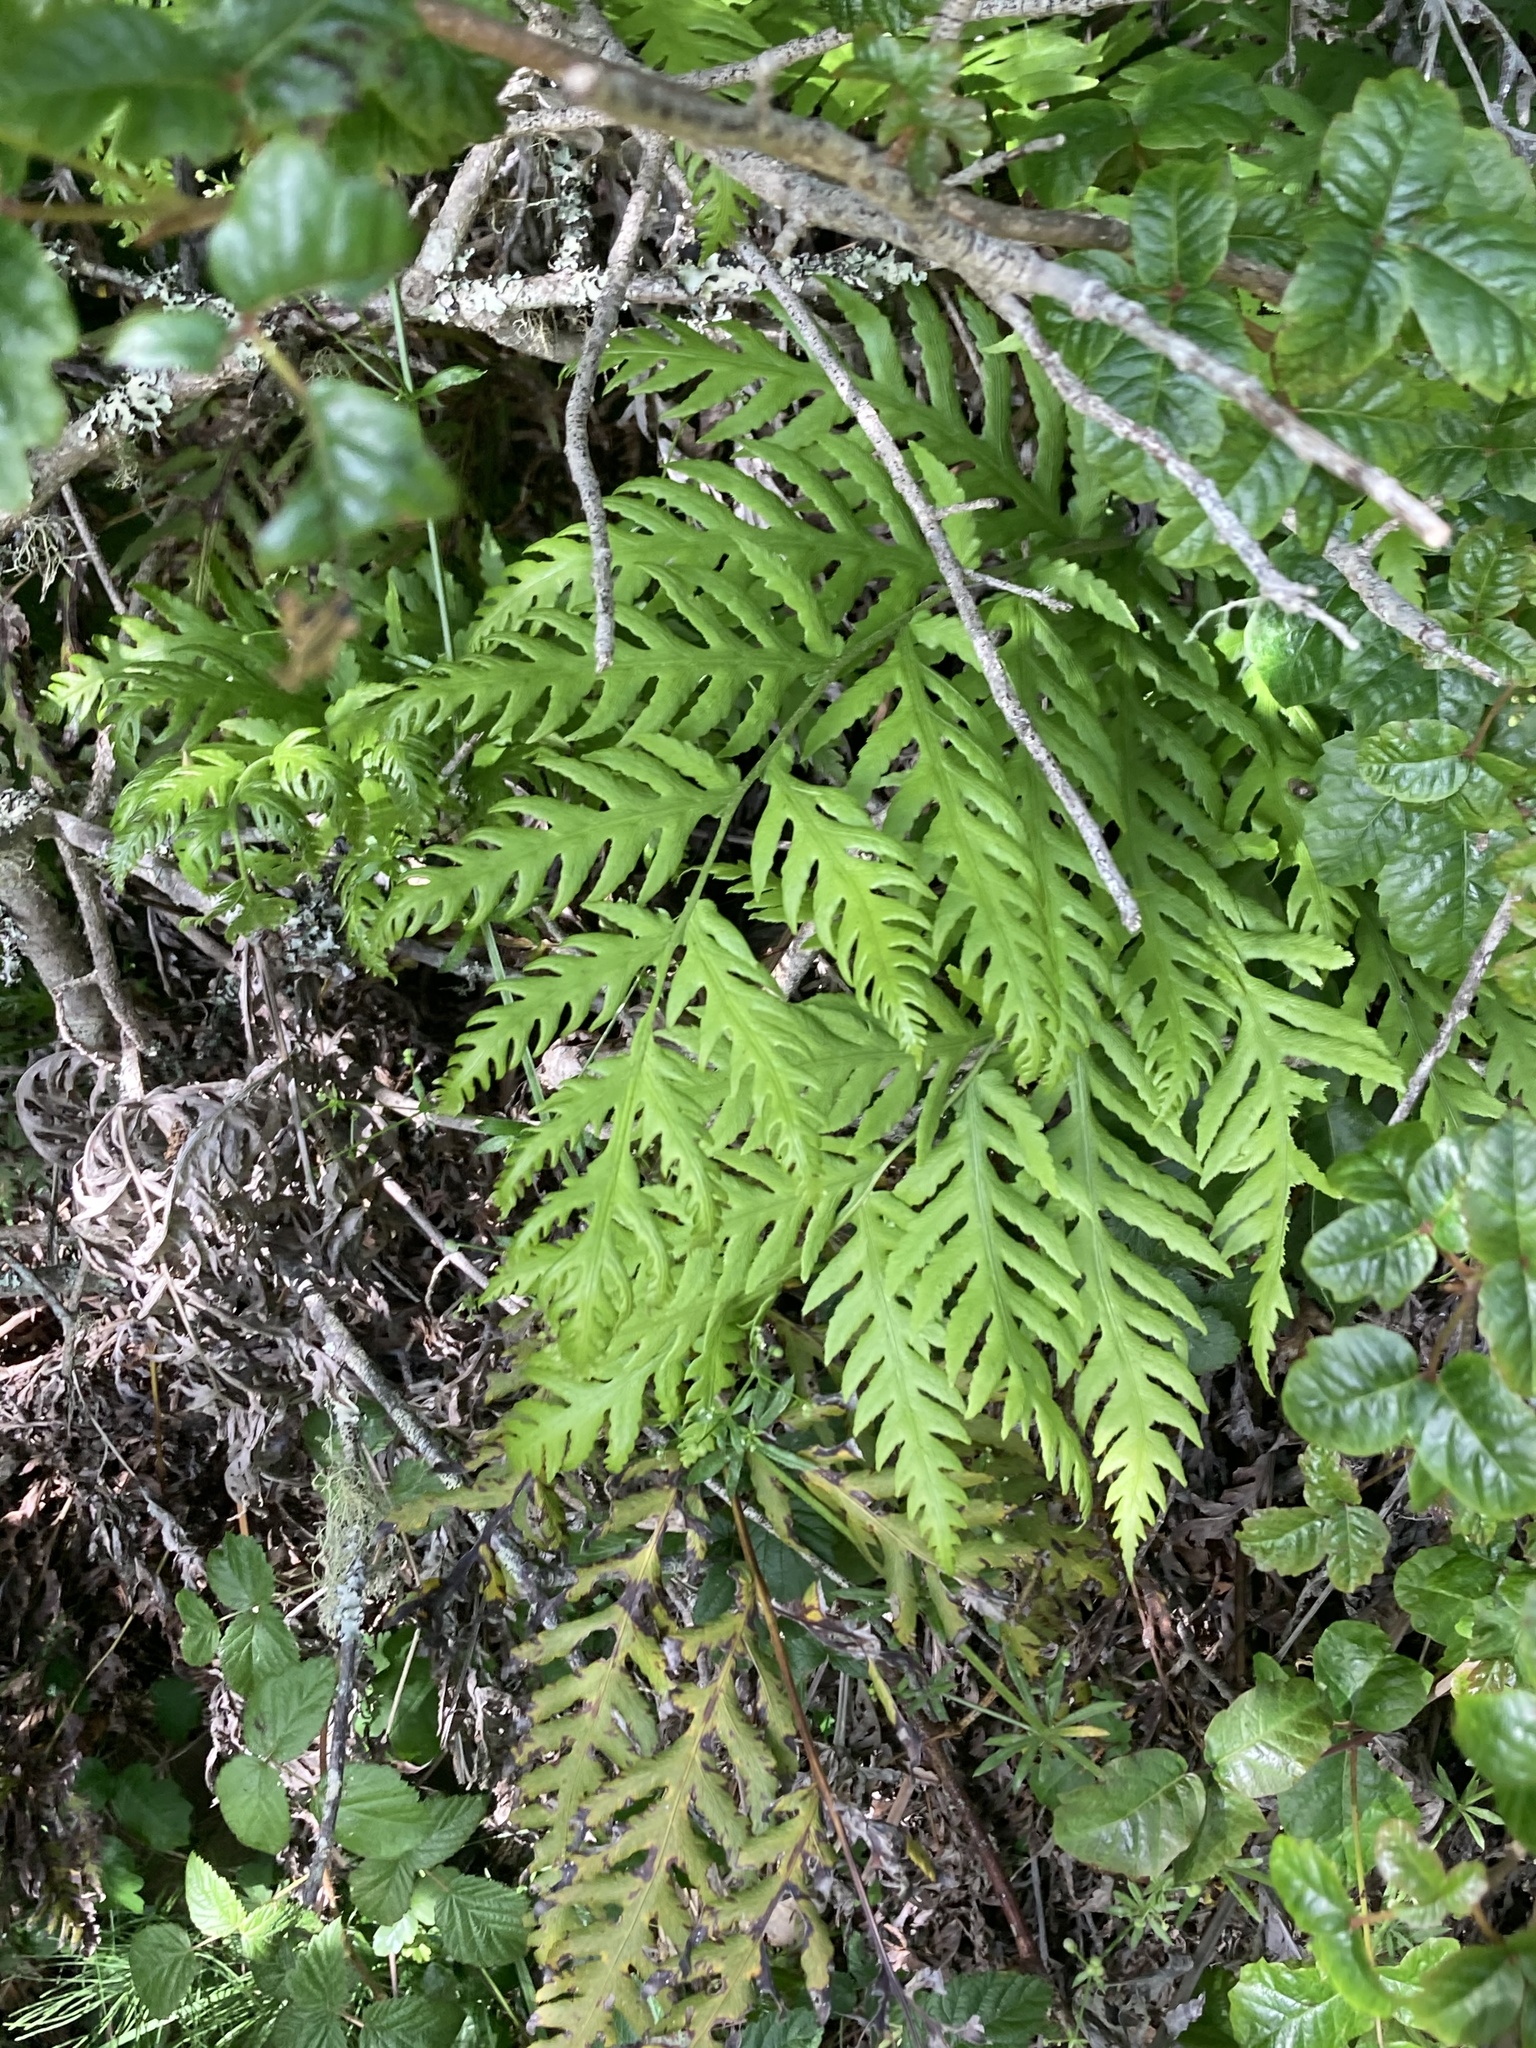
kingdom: Plantae
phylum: Tracheophyta
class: Polypodiopsida
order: Polypodiales
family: Blechnaceae
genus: Woodwardia
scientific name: Woodwardia fimbriata
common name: Giant chain fern
